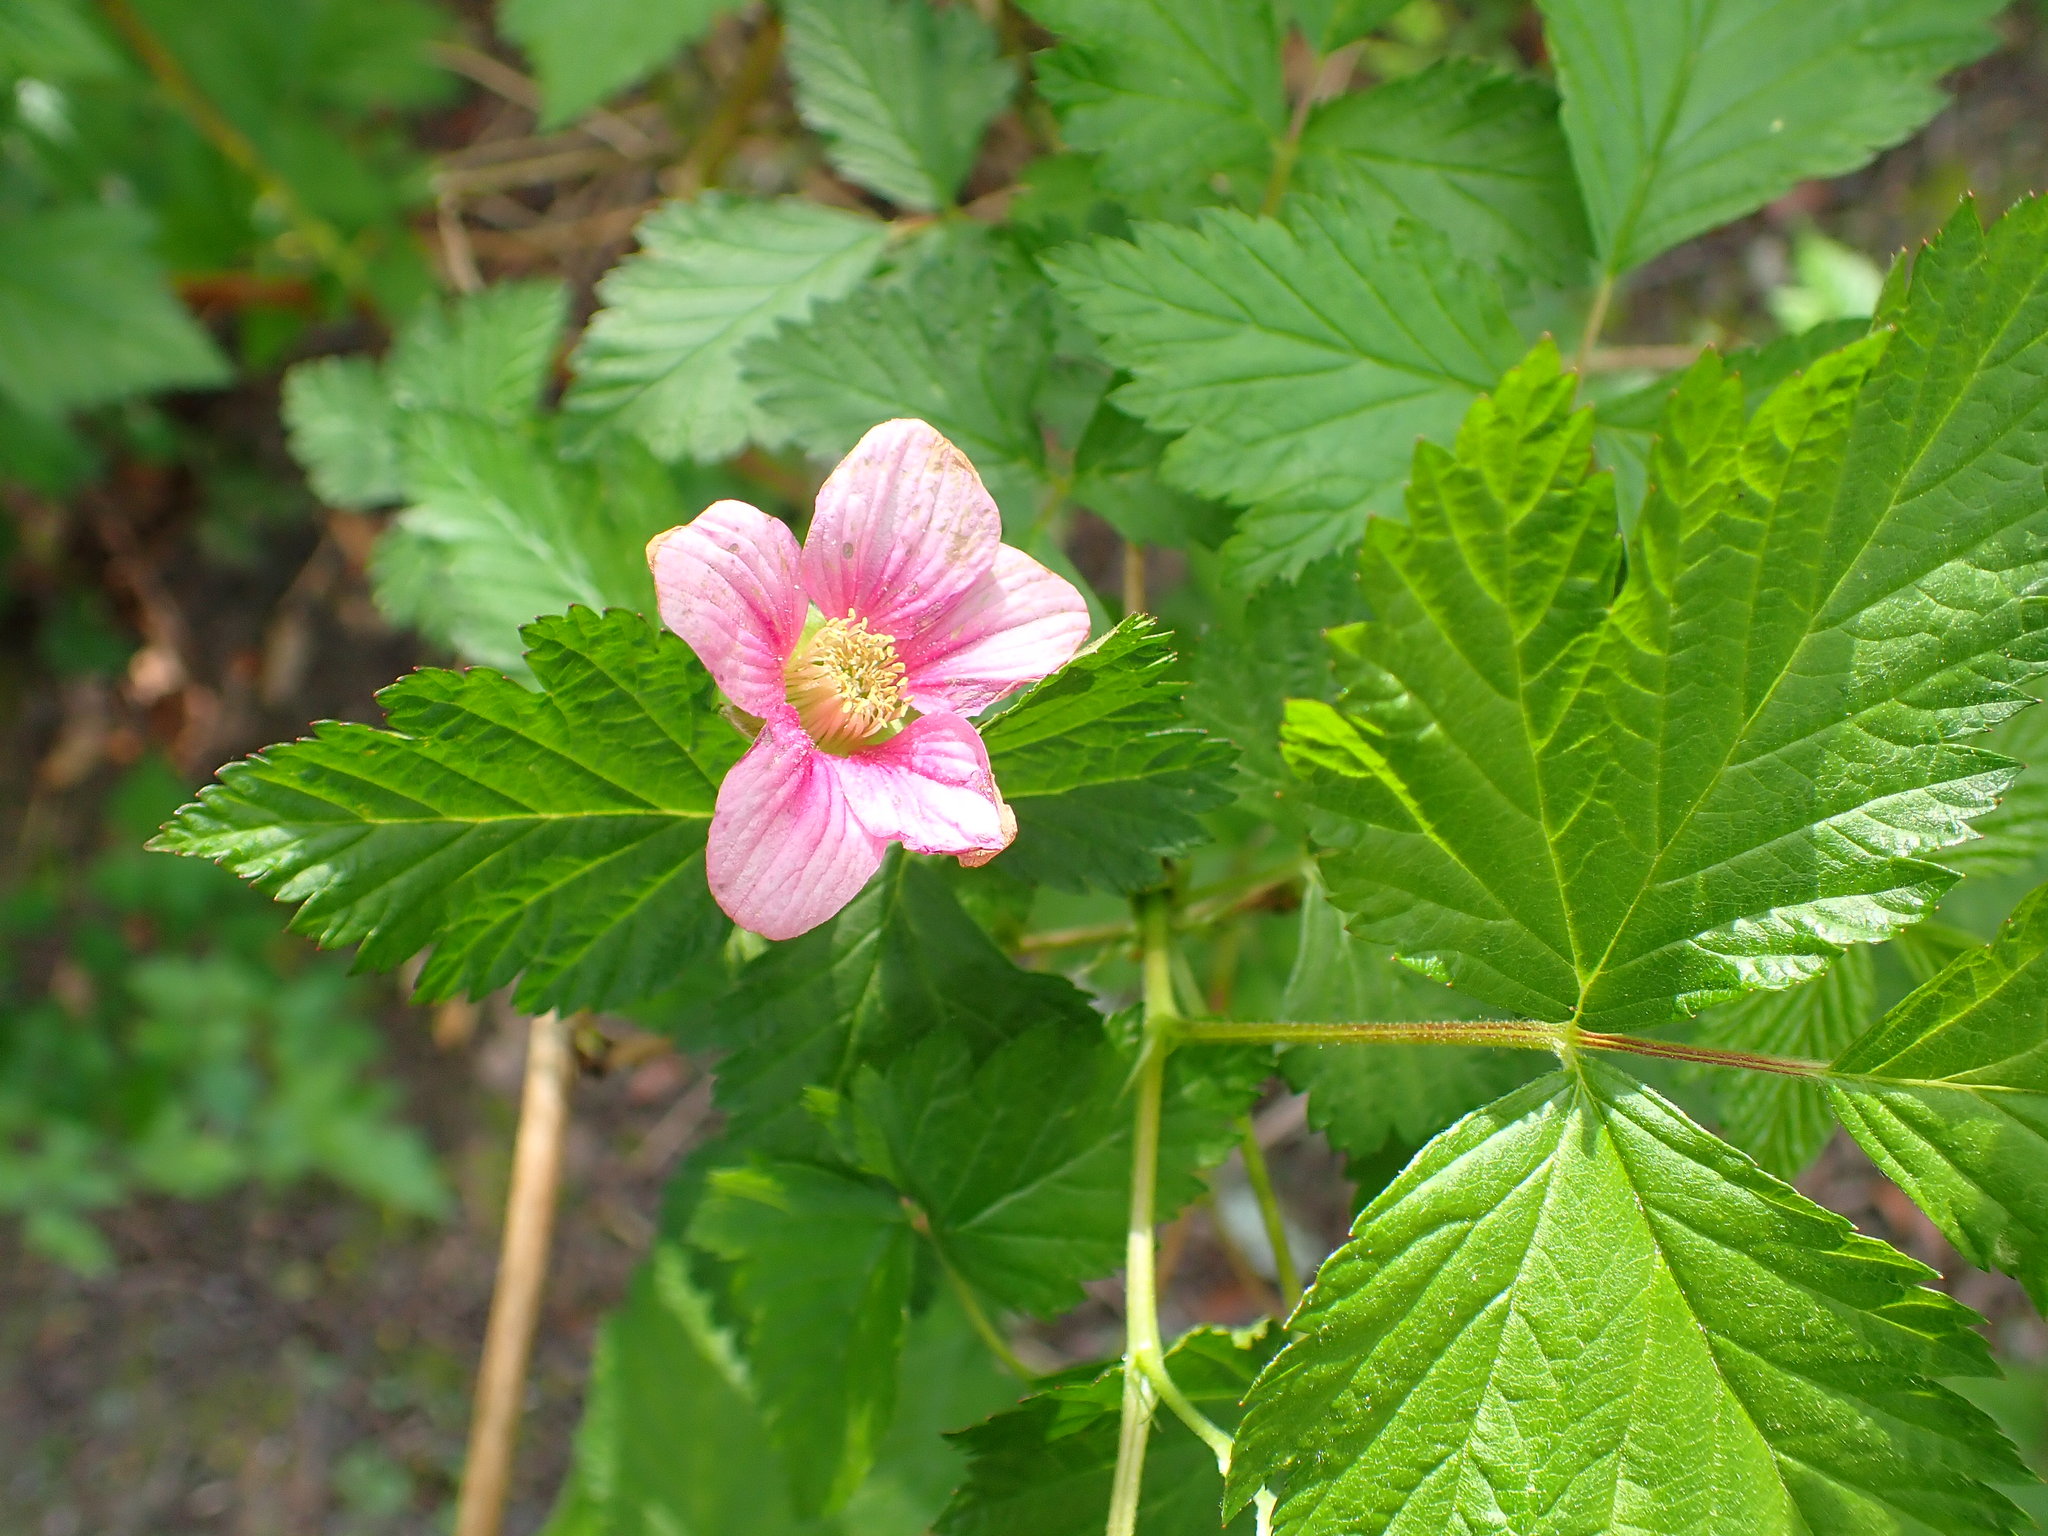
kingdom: Plantae
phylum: Tracheophyta
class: Magnoliopsida
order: Rosales
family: Rosaceae
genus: Rubus
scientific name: Rubus spectabilis
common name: Salmonberry
